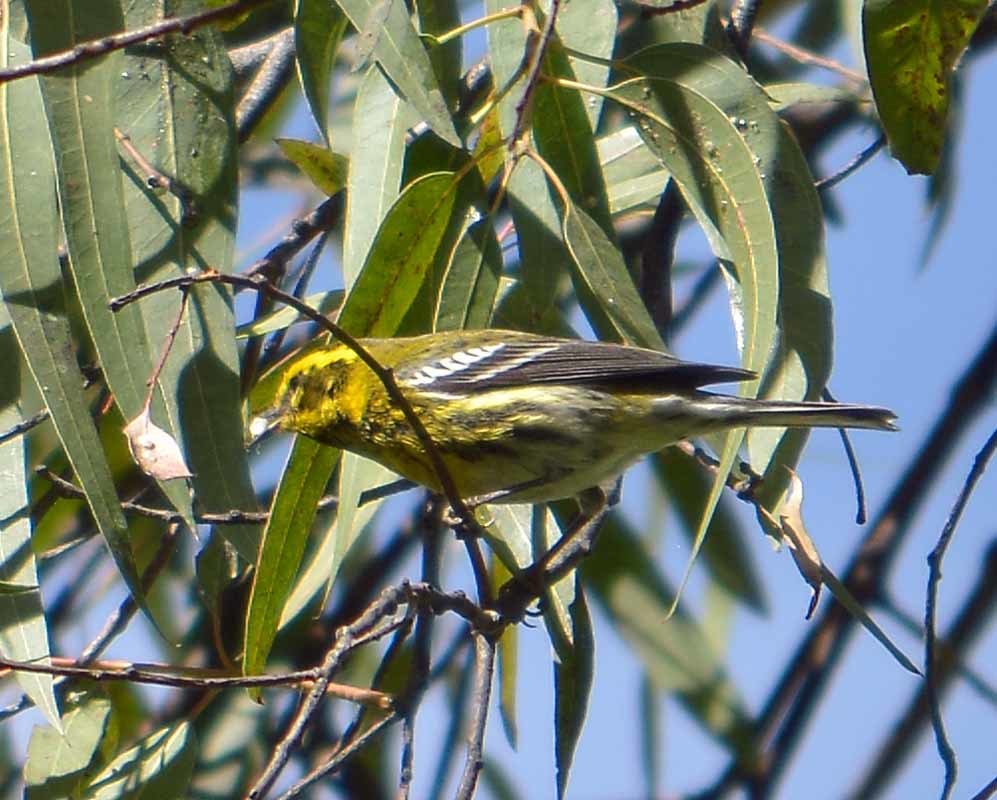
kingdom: Animalia
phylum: Chordata
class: Aves
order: Passeriformes
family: Parulidae
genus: Setophaga
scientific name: Setophaga townsendi
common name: Townsend's warbler
